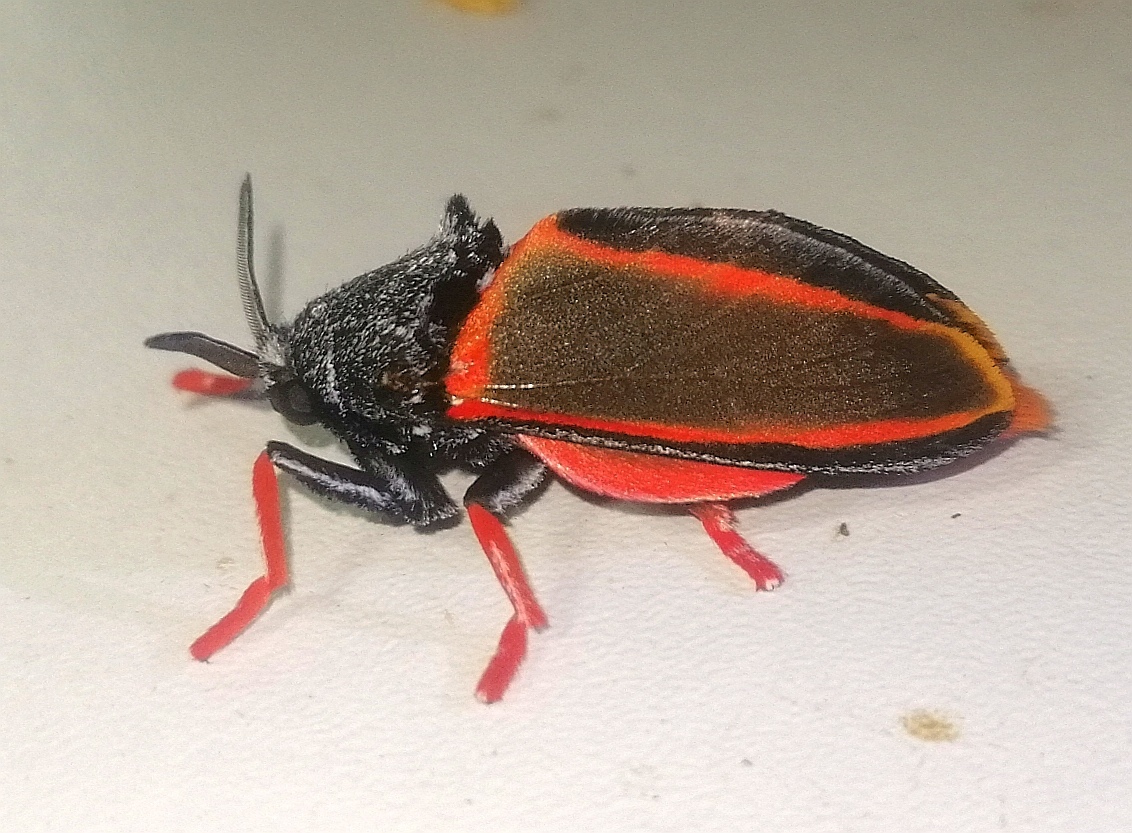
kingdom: Animalia
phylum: Arthropoda
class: Insecta
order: Lepidoptera
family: Megalopygidae
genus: Edebessa
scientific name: Edebessa circumcincta
